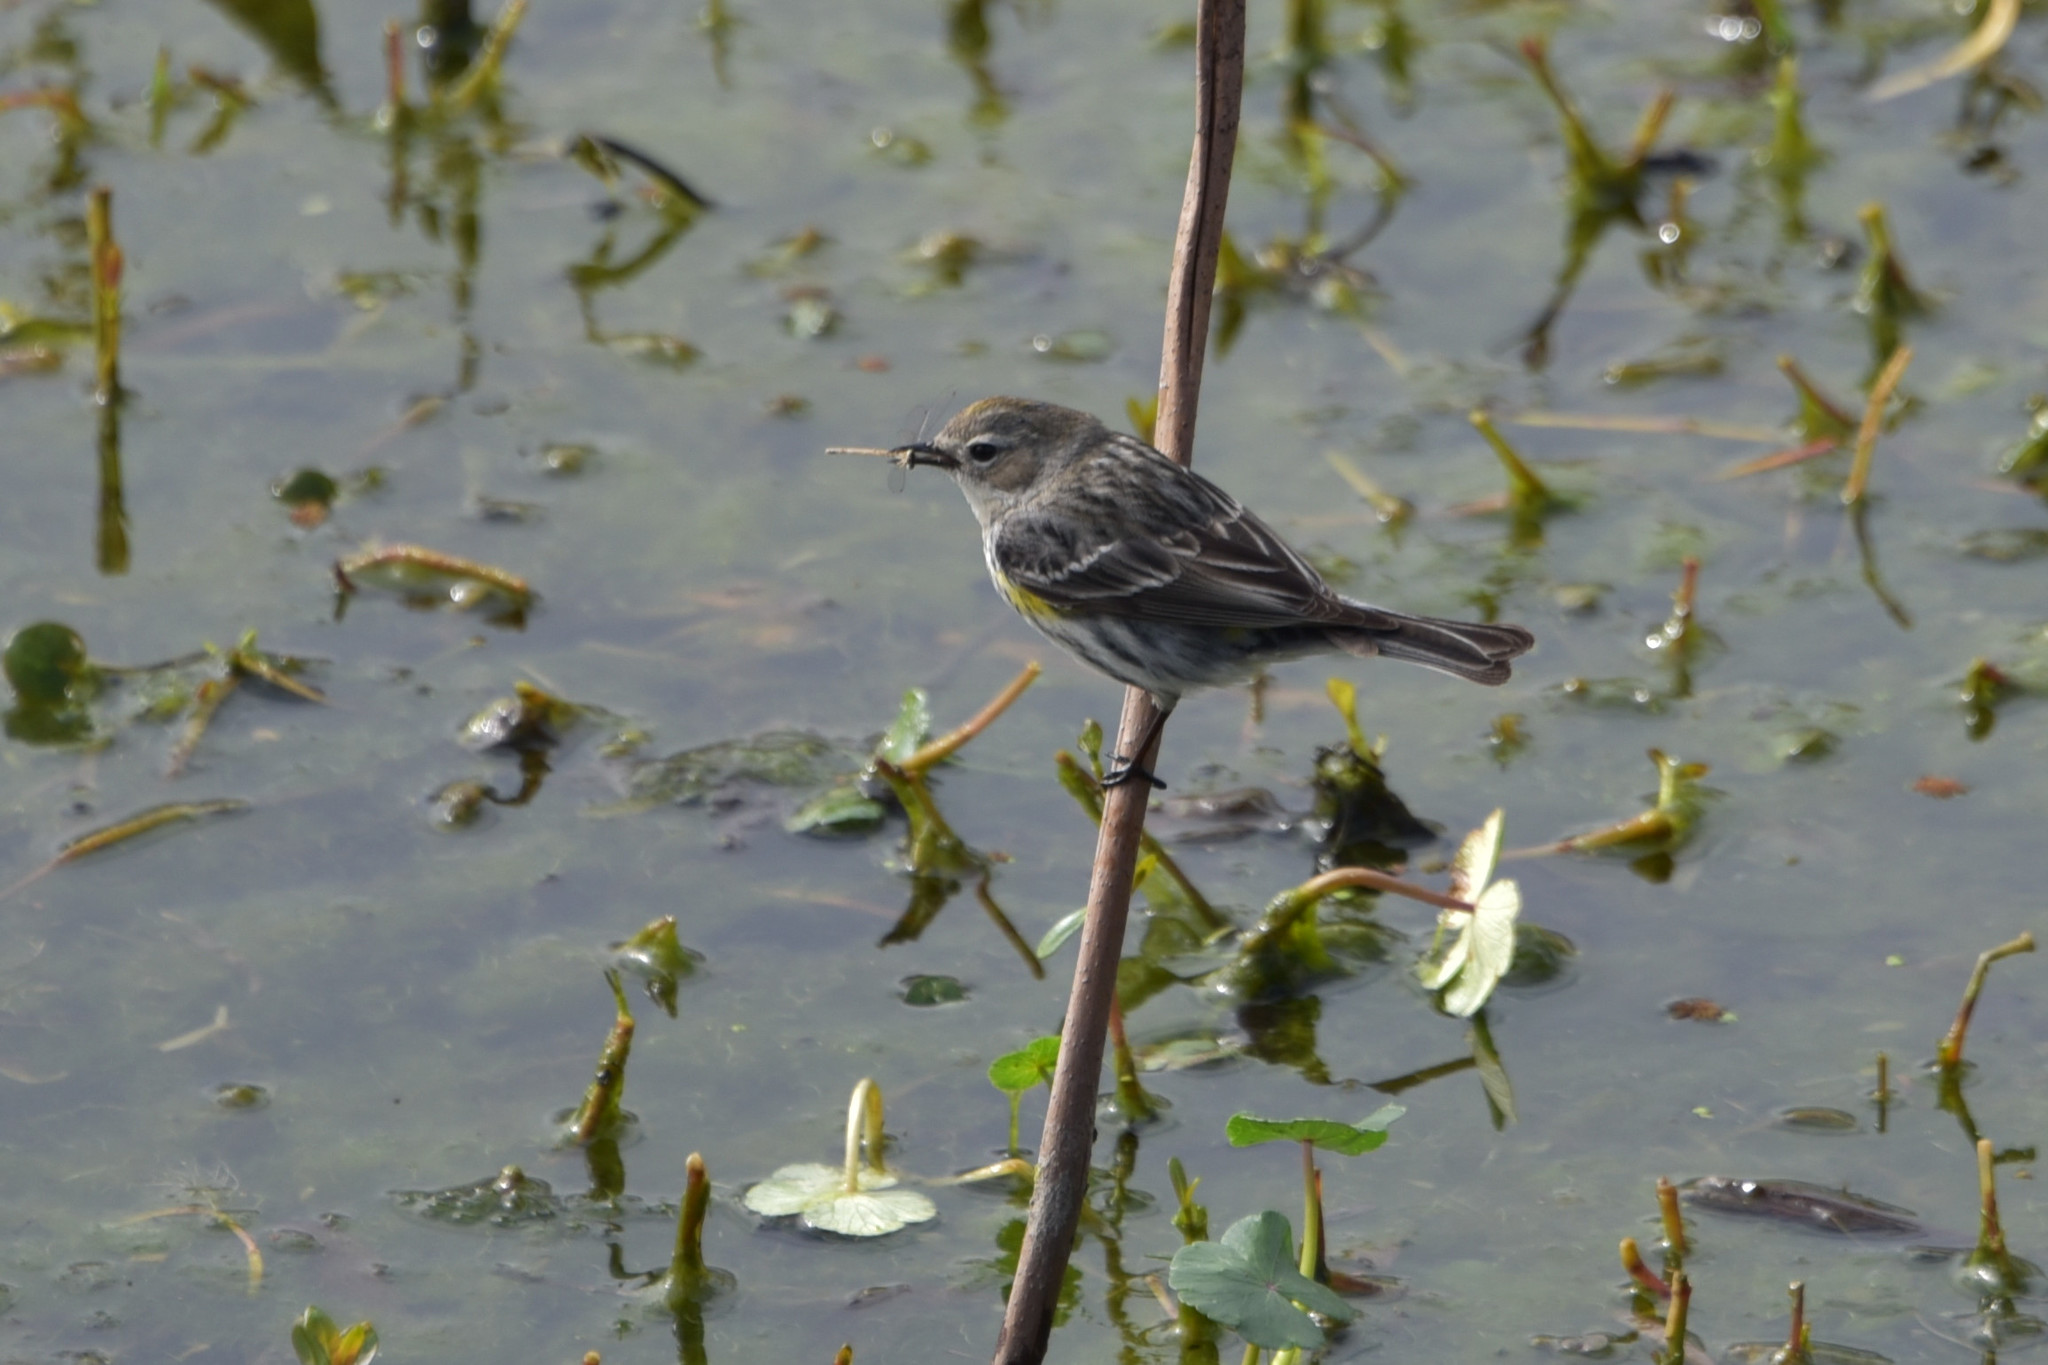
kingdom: Animalia
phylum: Chordata
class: Aves
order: Passeriformes
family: Parulidae
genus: Setophaga
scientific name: Setophaga coronata
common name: Myrtle warbler
